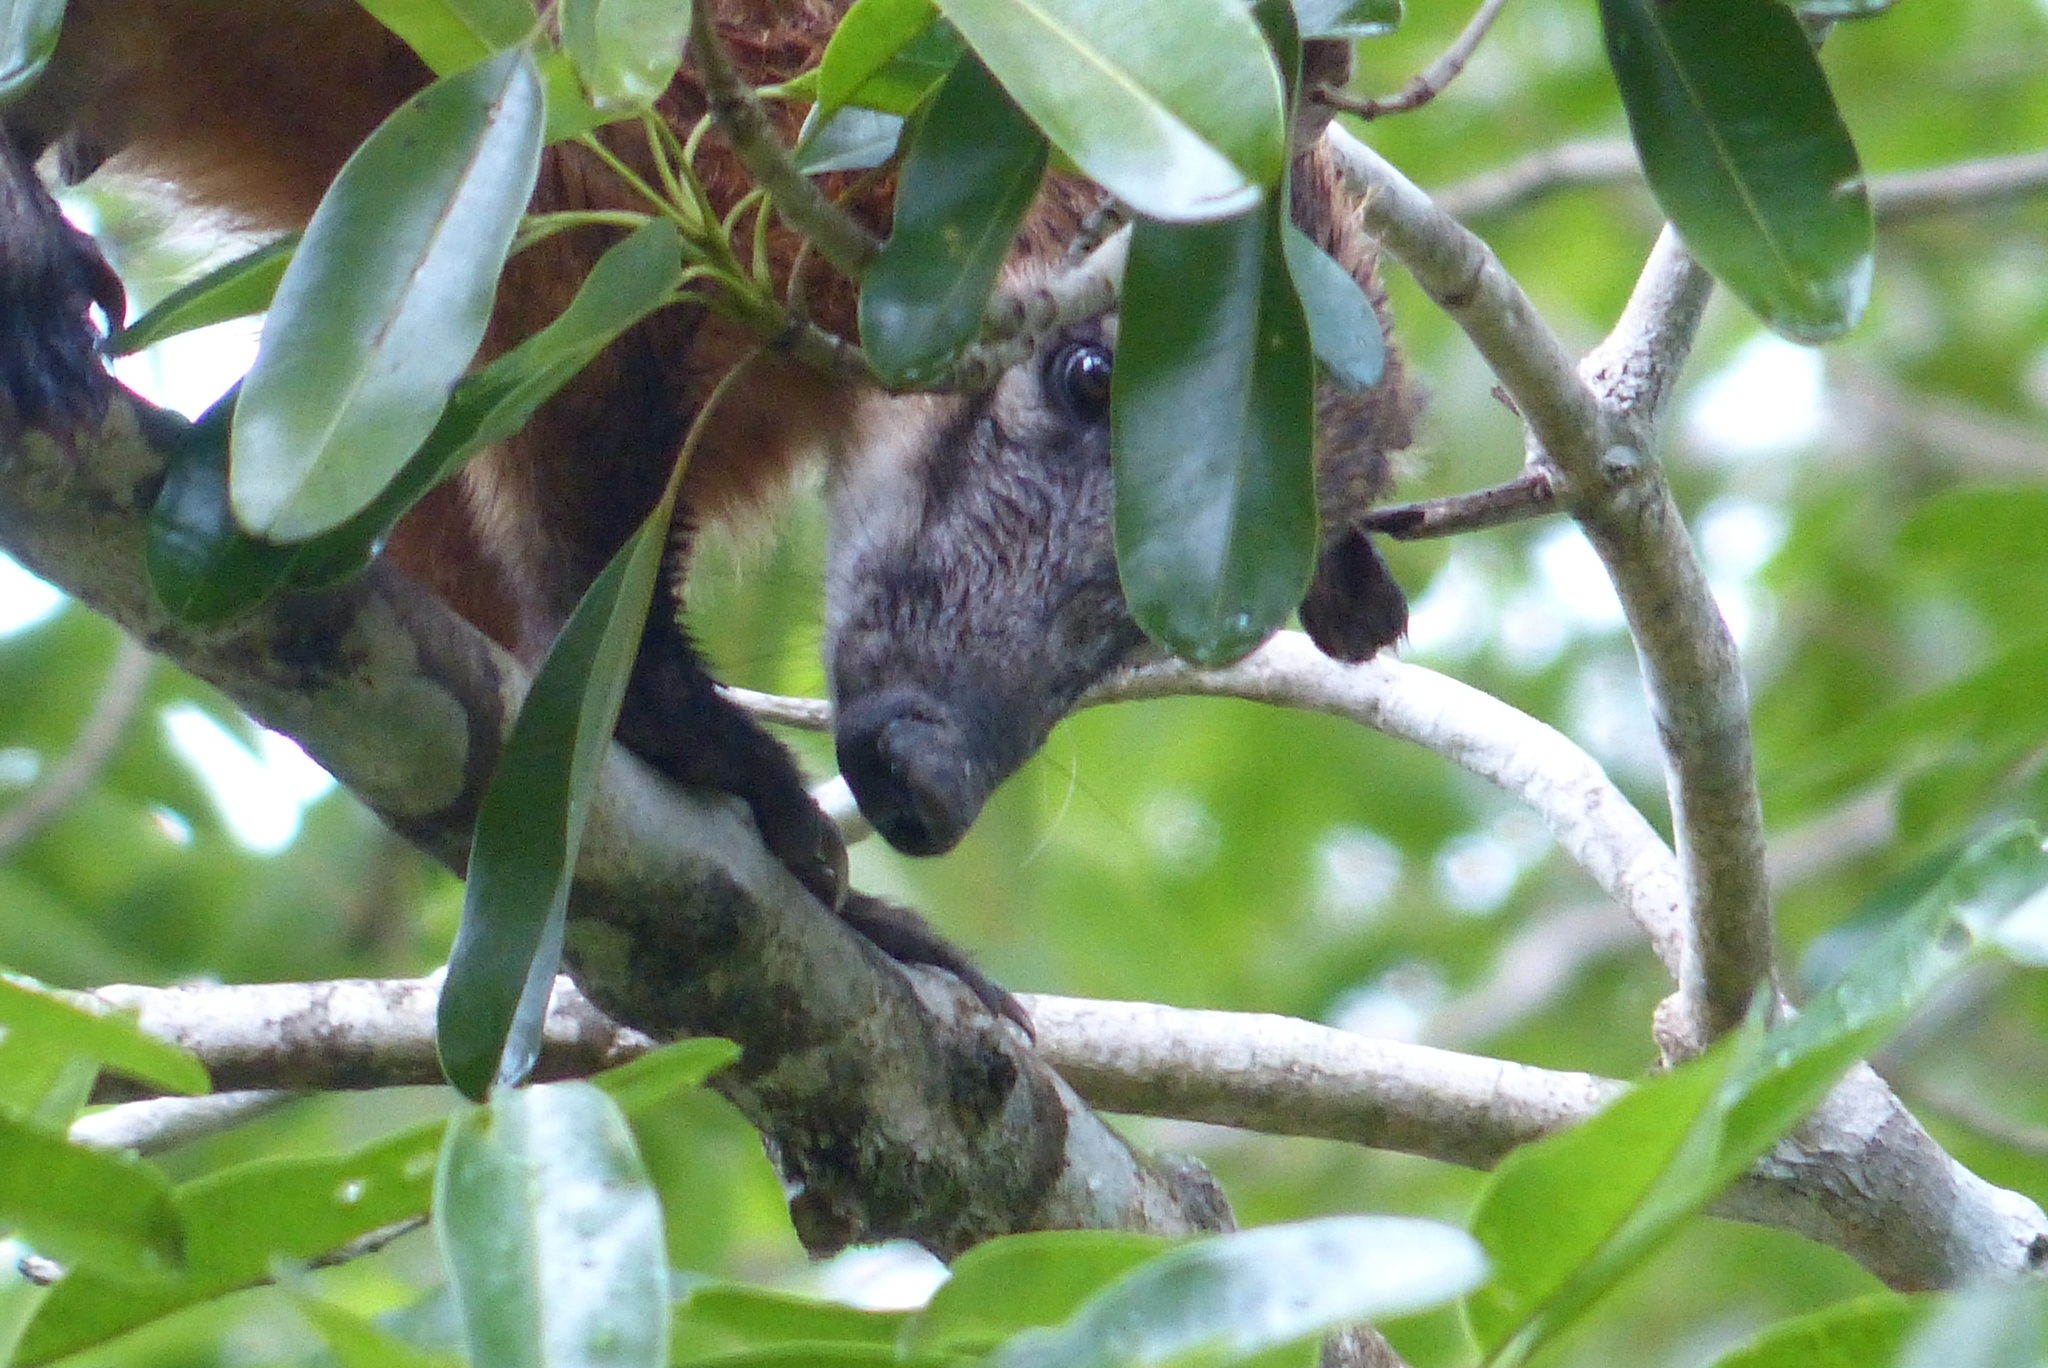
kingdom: Animalia
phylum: Chordata
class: Mammalia
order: Carnivora
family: Procyonidae
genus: Nasua
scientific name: Nasua nasua
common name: South american coati
